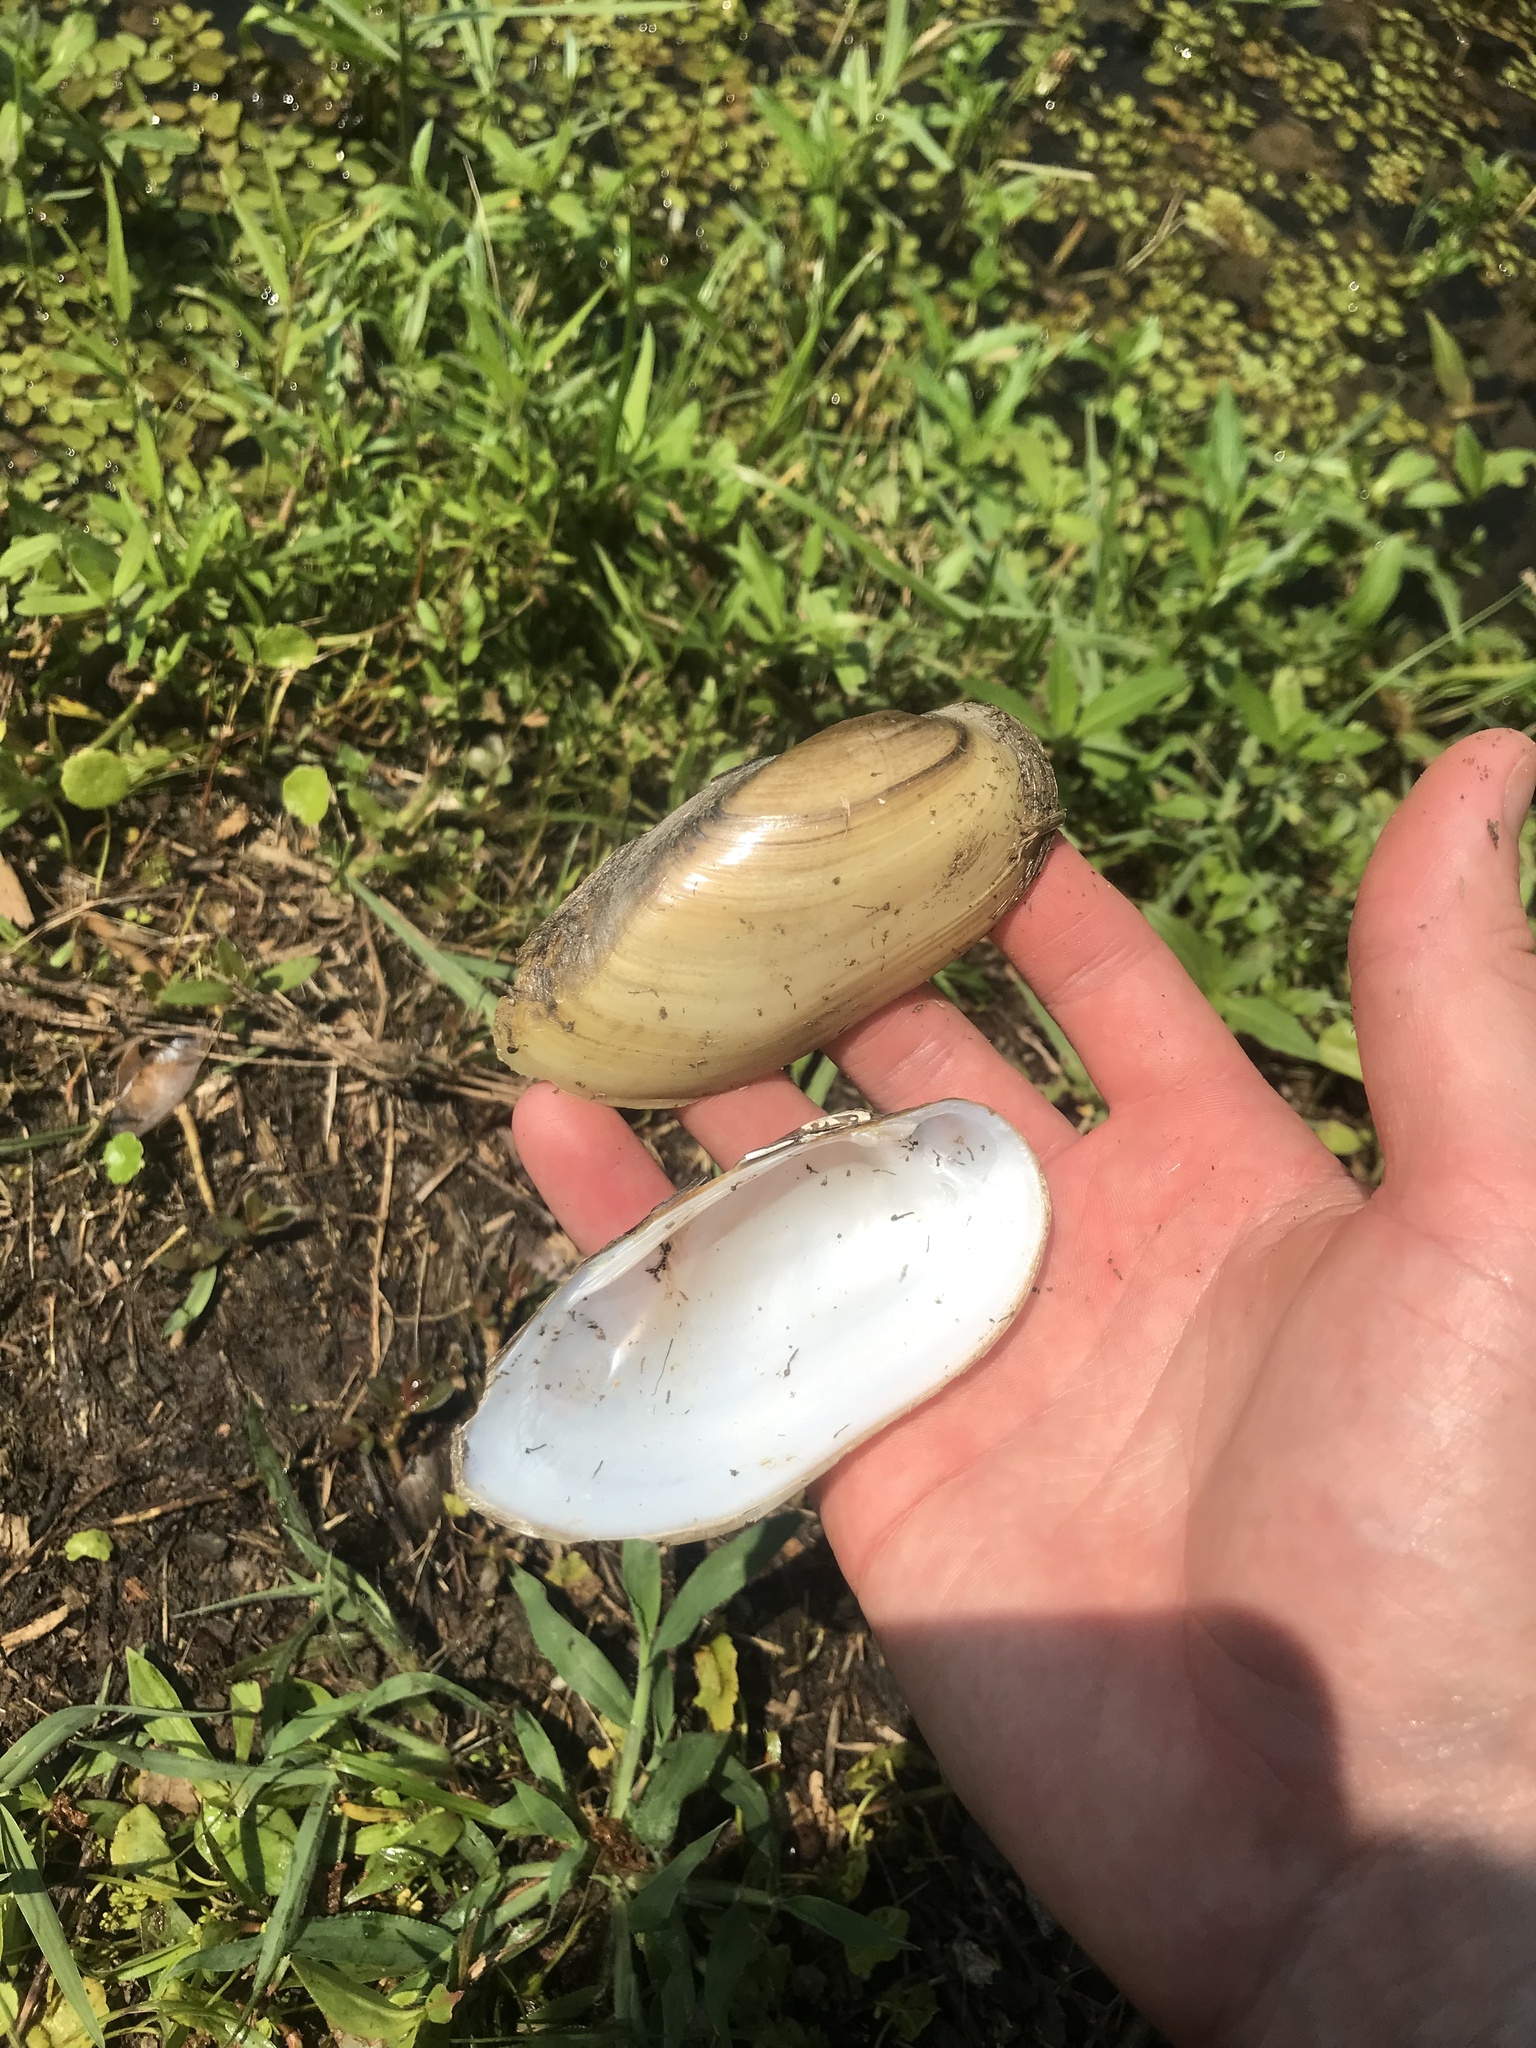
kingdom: Animalia
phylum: Mollusca
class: Bivalvia
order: Unionida
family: Unionidae
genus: Lampsilis
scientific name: Lampsilis teres
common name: Yellow sandshell
